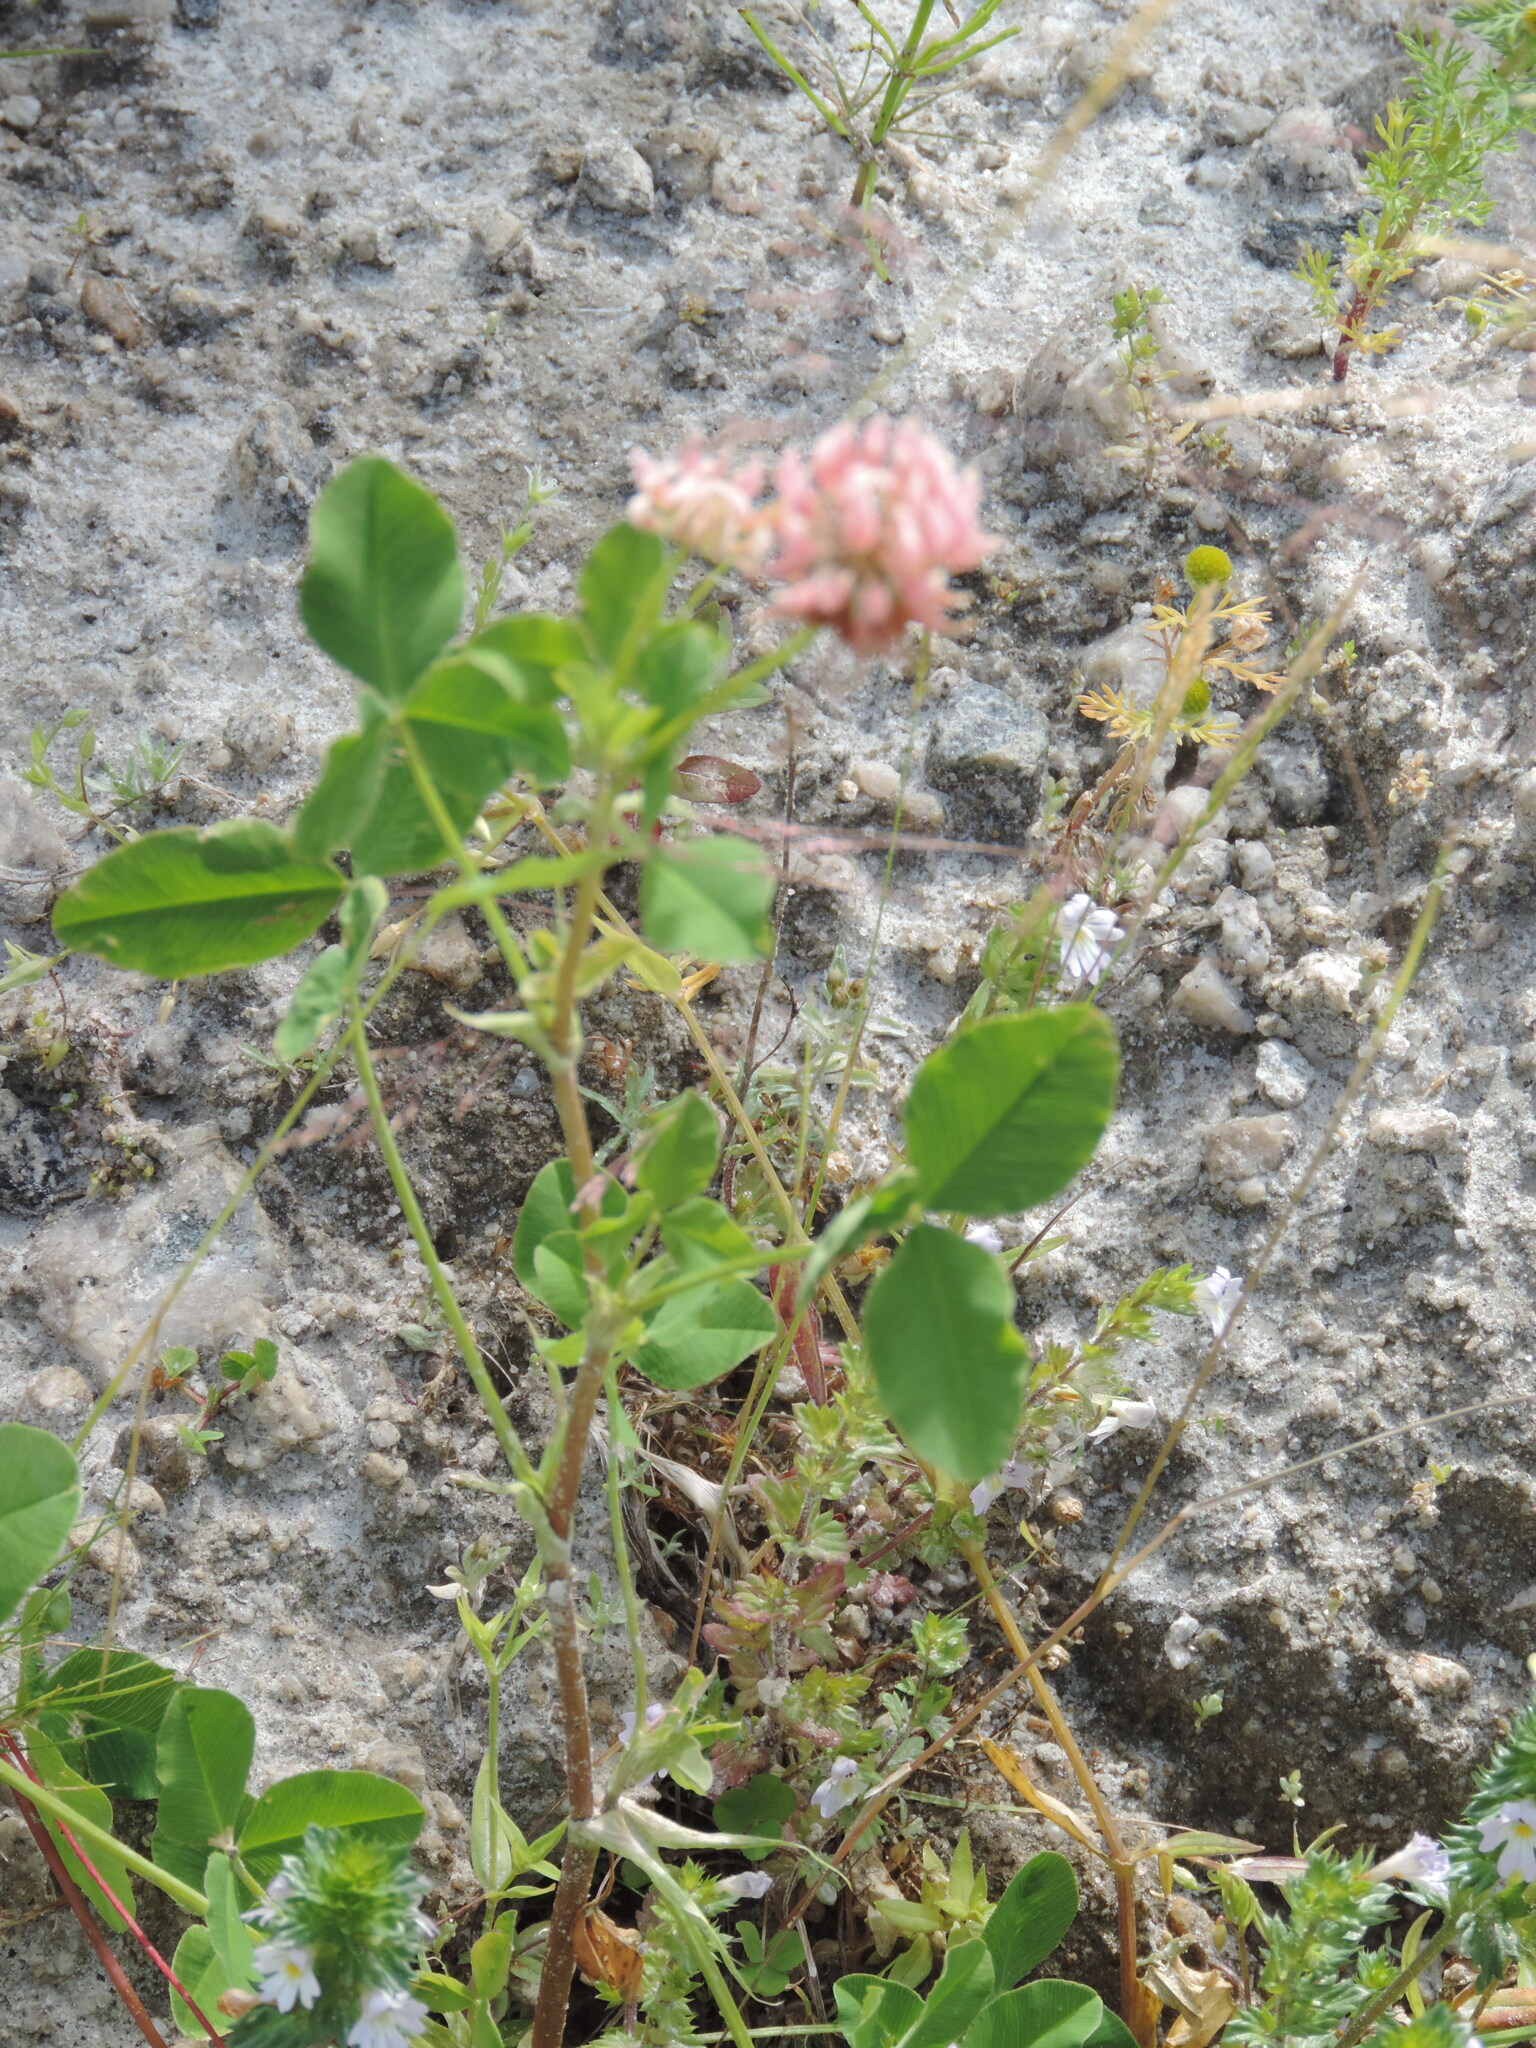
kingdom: Plantae
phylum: Tracheophyta
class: Magnoliopsida
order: Fabales
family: Fabaceae
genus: Trifolium
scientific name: Trifolium hybridum
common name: Alsike clover
